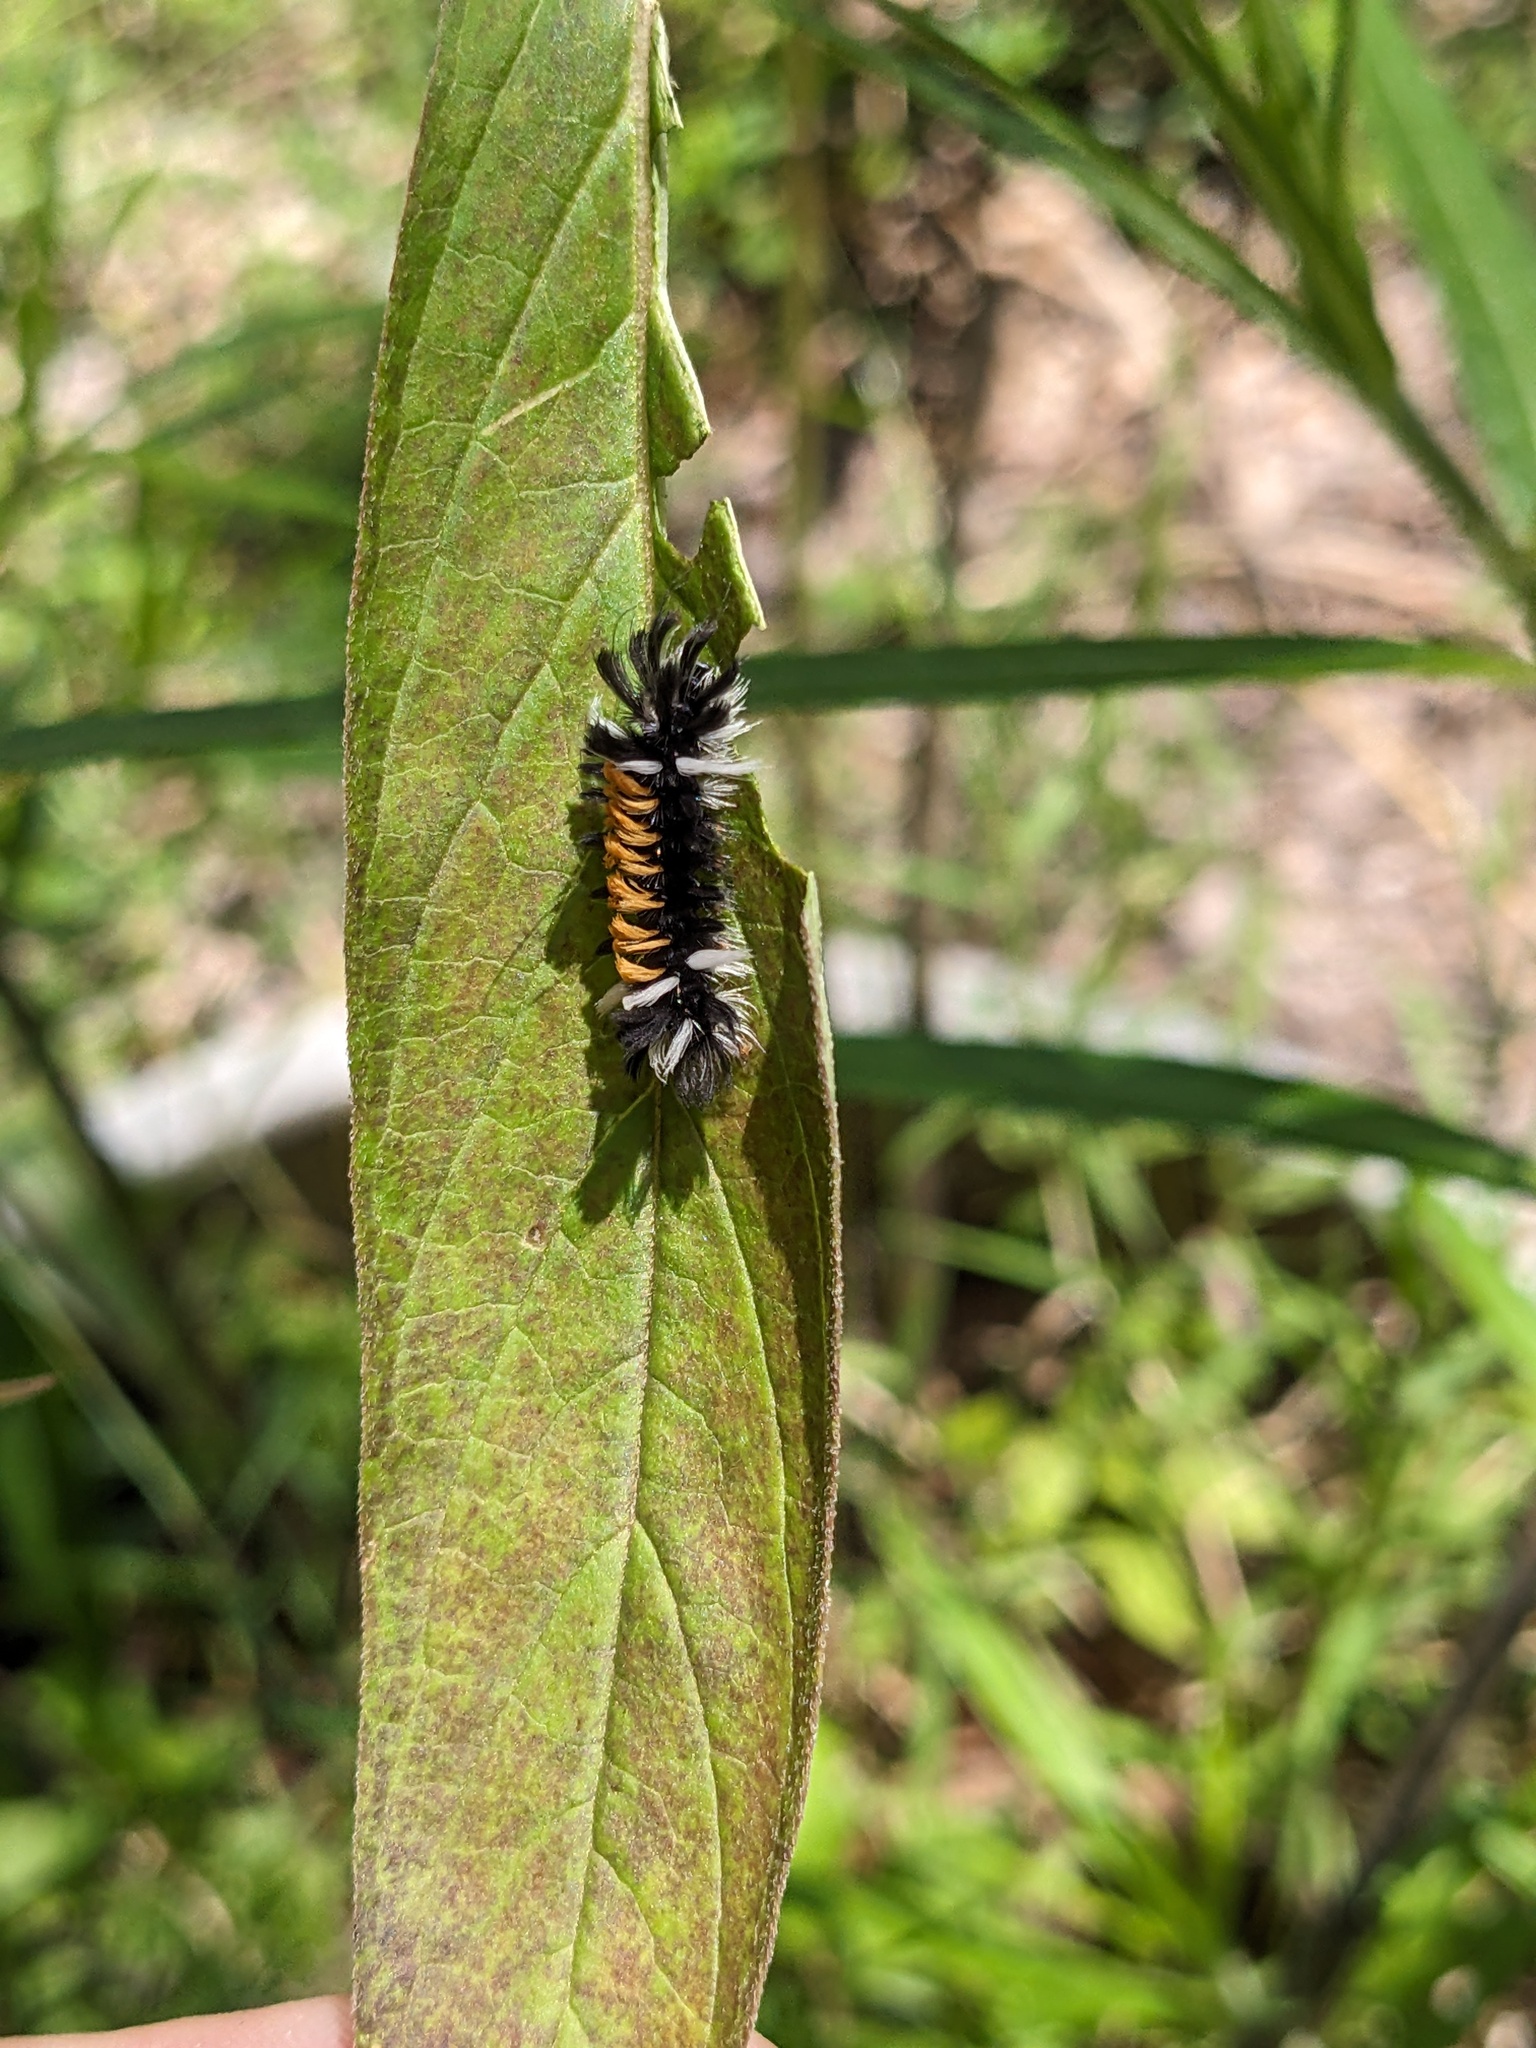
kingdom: Animalia
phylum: Arthropoda
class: Insecta
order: Lepidoptera
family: Erebidae
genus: Euchaetes
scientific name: Euchaetes egle
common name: Milkweed tussock moth
